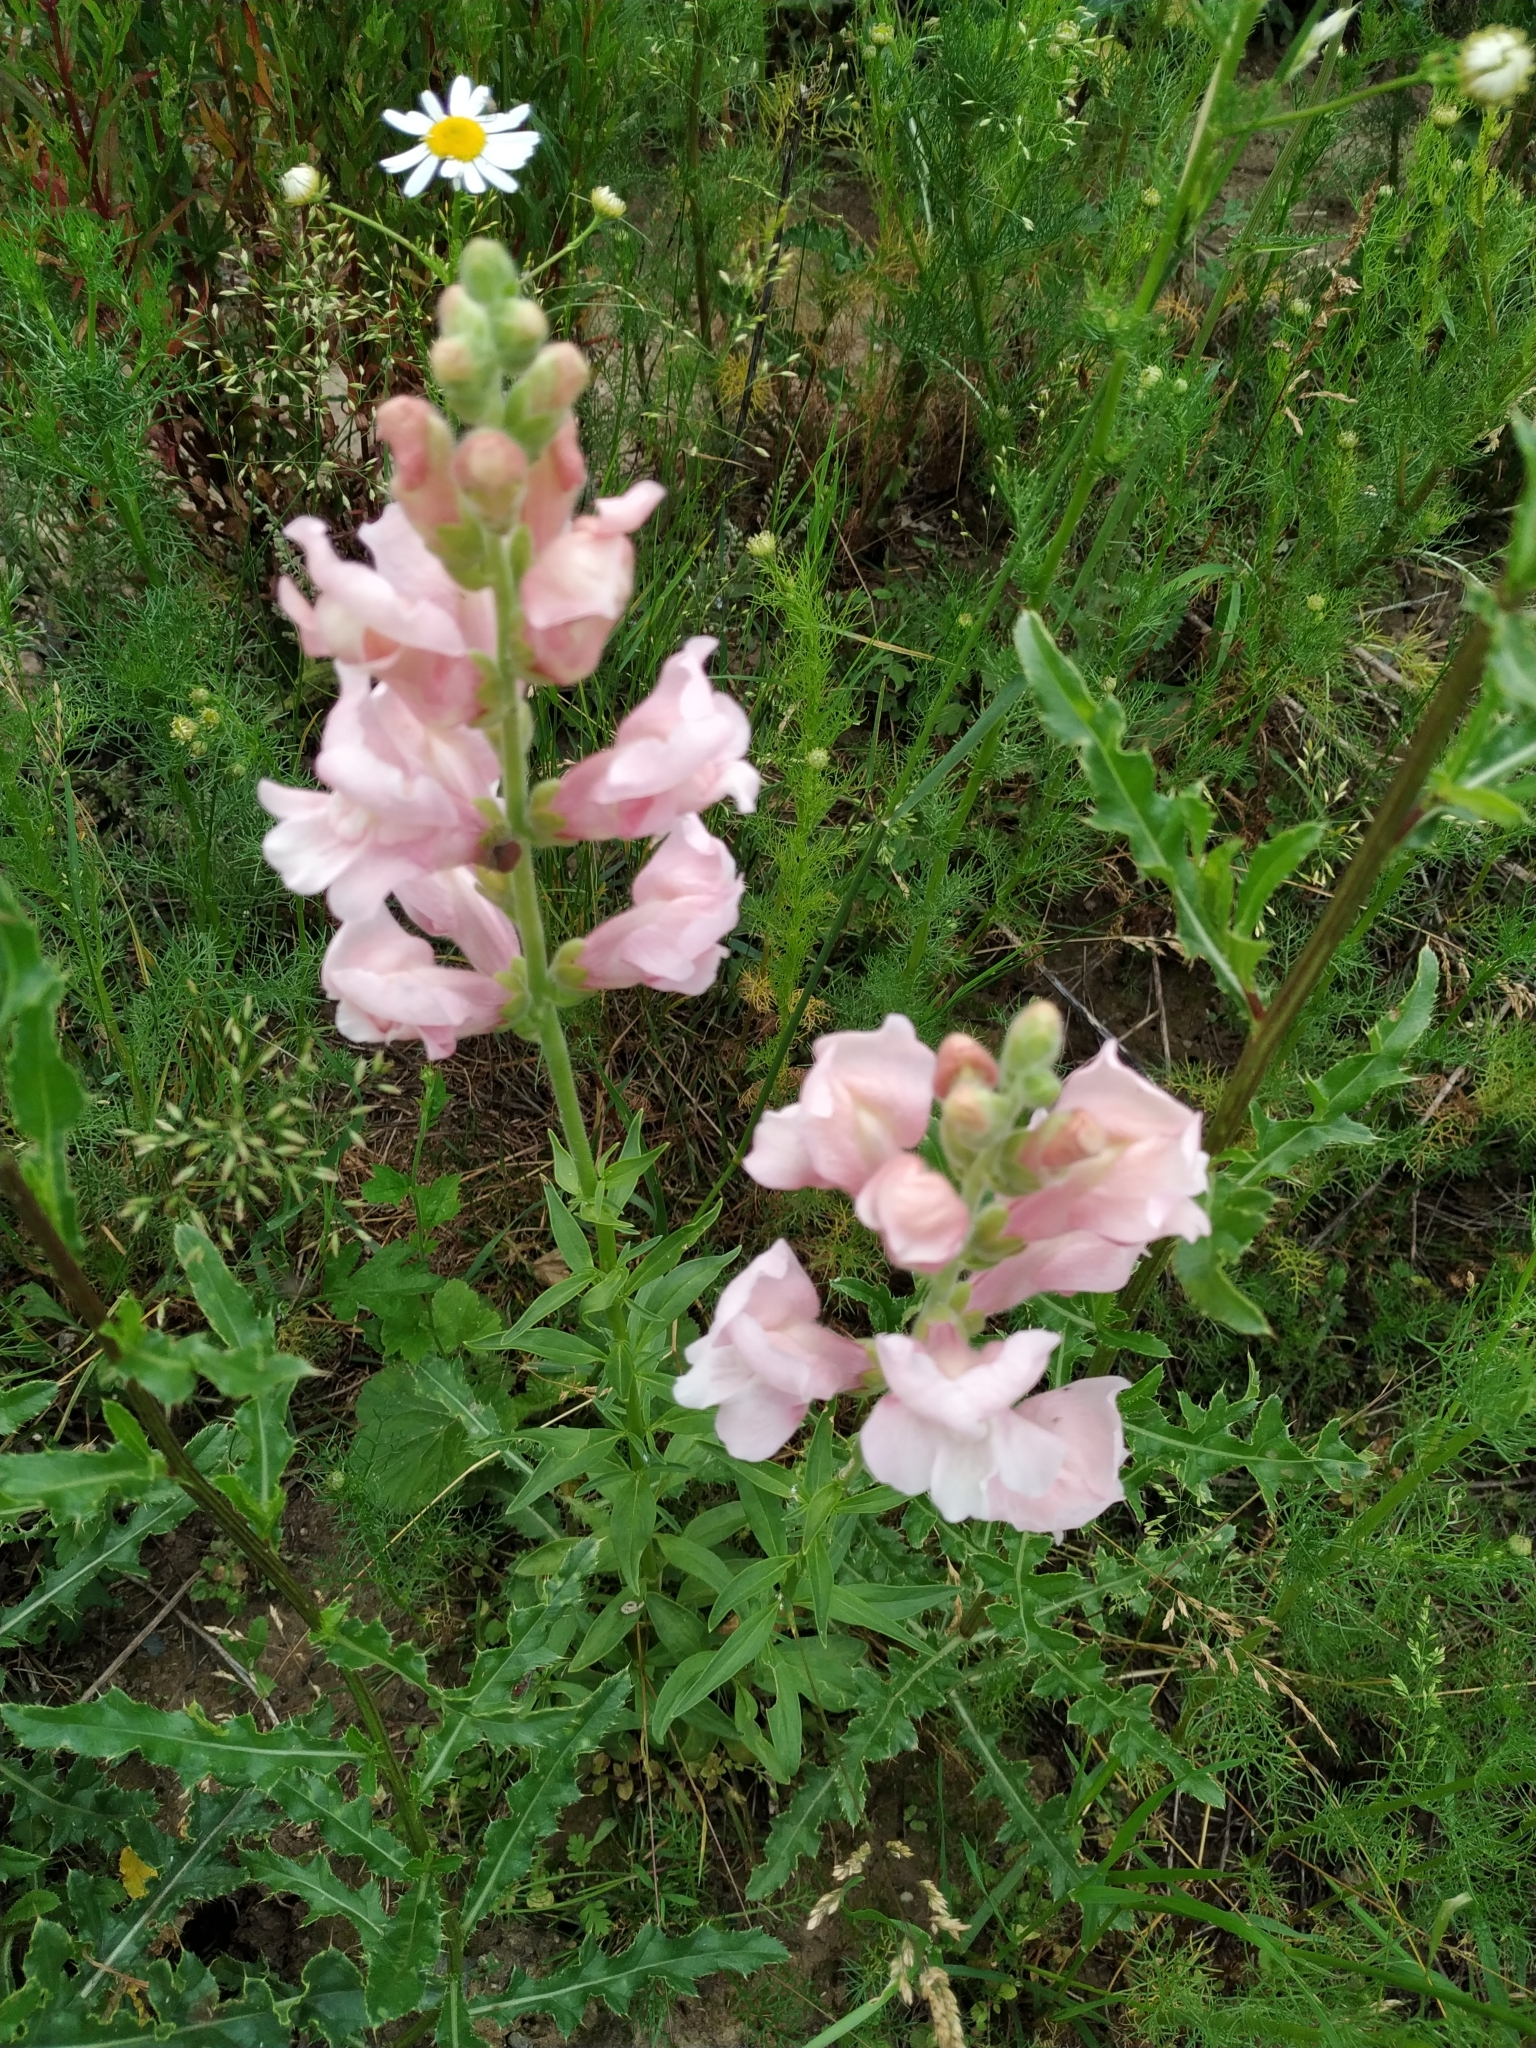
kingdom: Plantae
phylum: Tracheophyta
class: Magnoliopsida
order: Lamiales
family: Plantaginaceae
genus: Antirrhinum
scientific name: Antirrhinum majus
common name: Snapdragon
